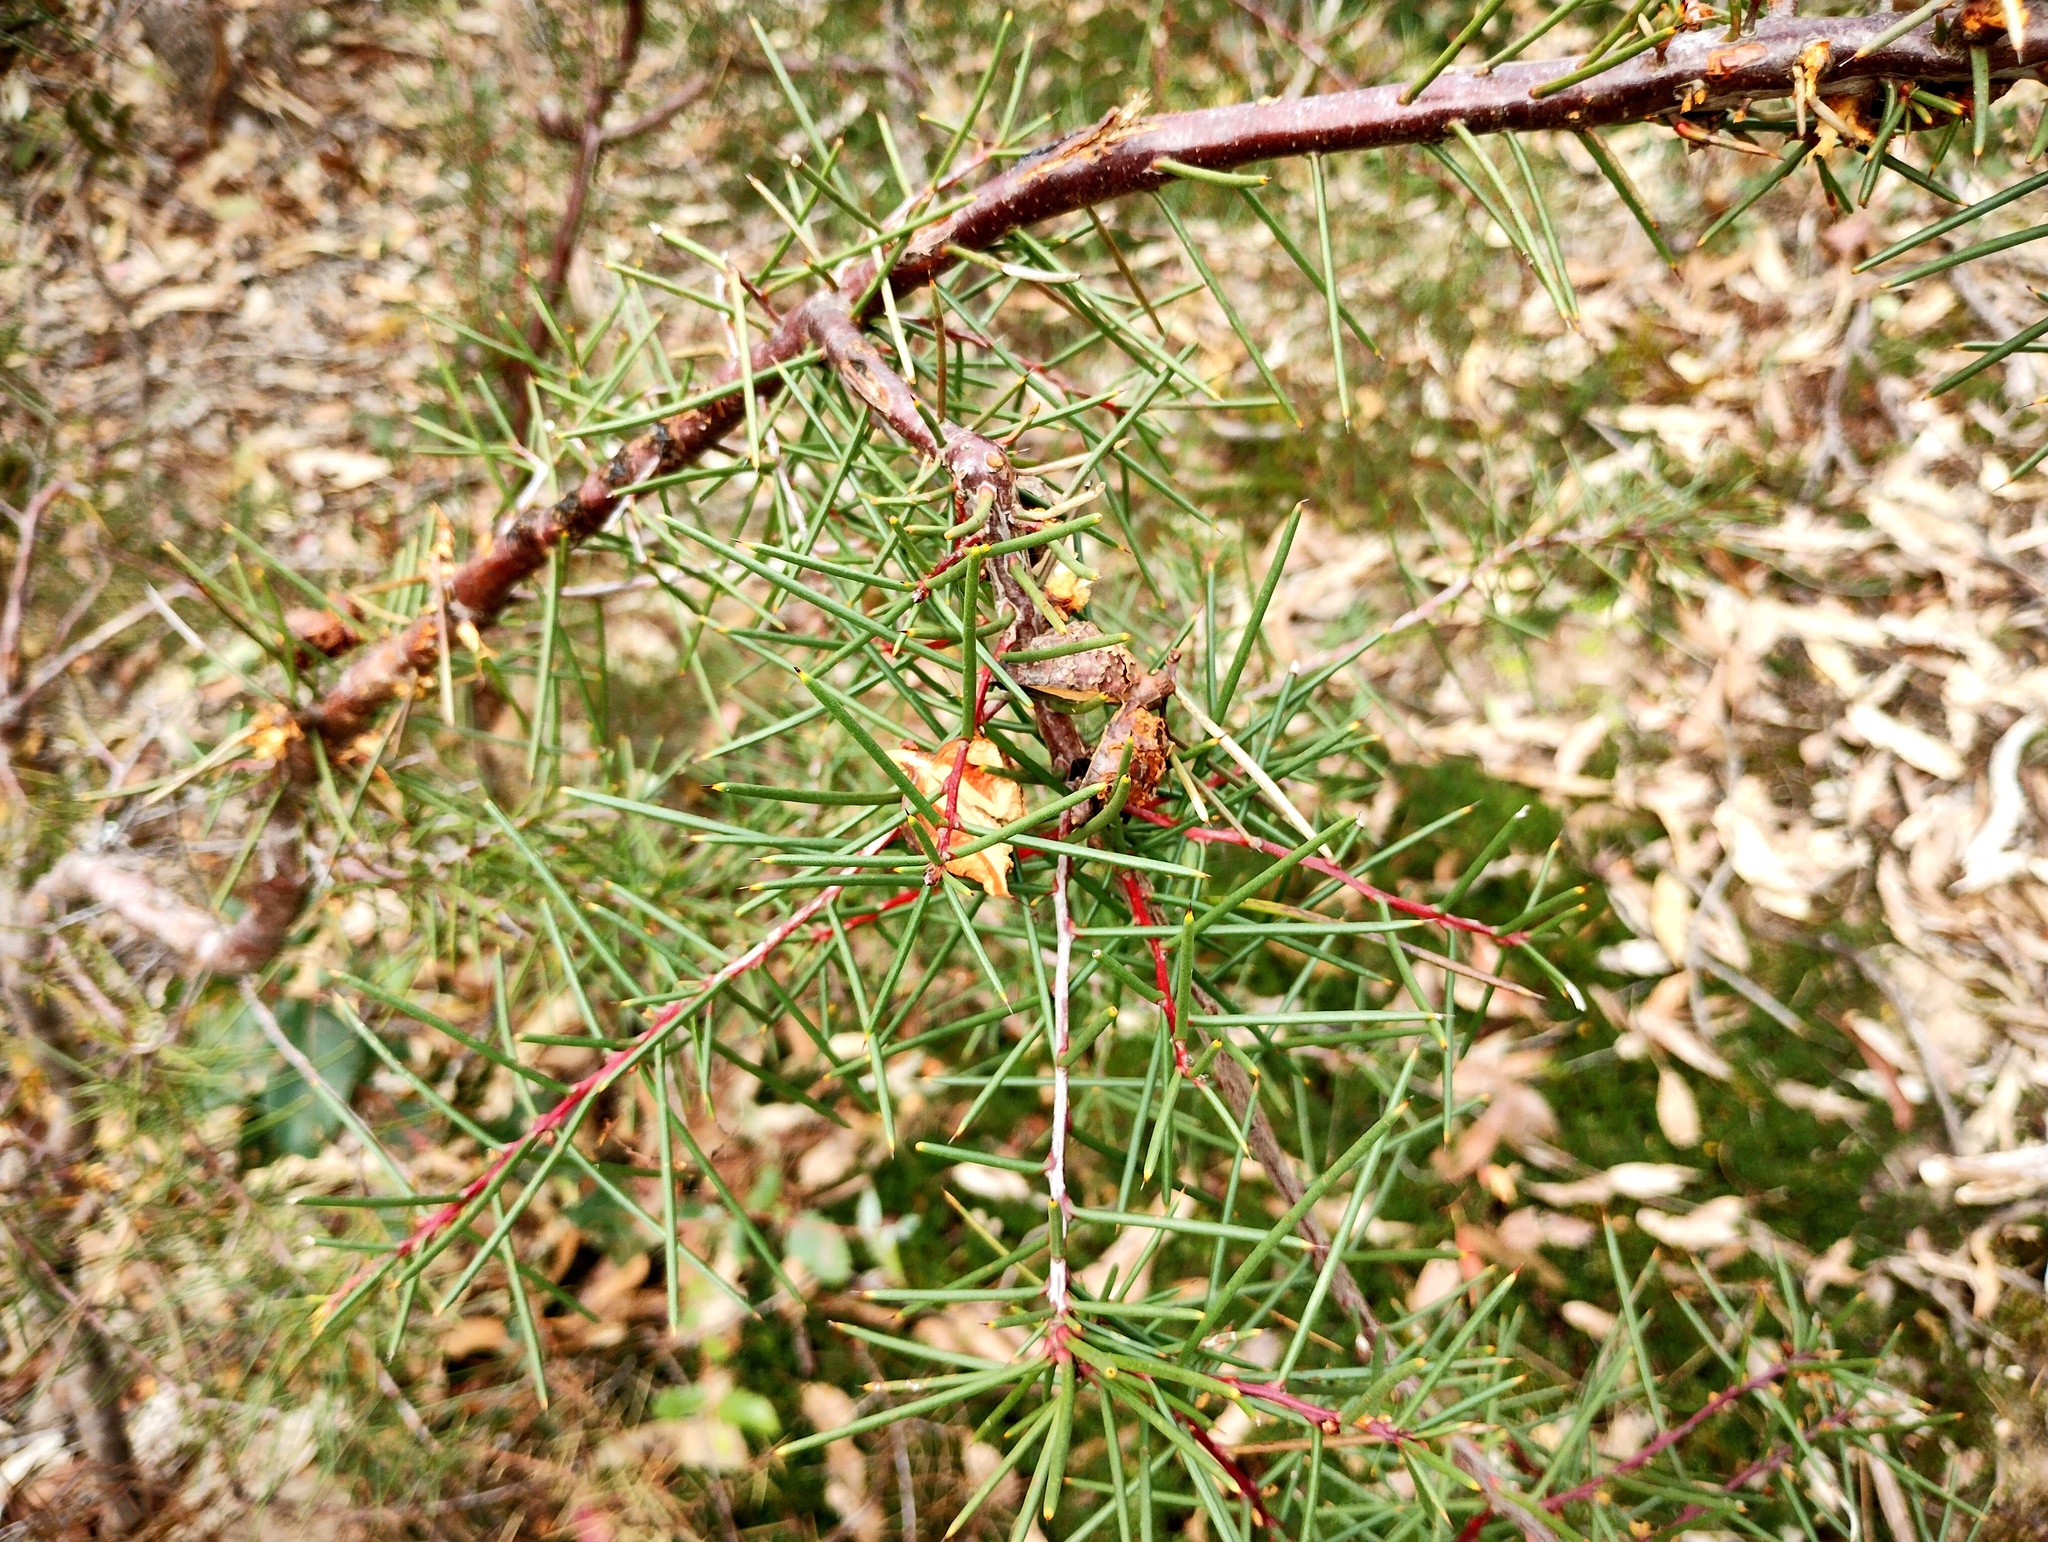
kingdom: Plantae
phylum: Tracheophyta
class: Magnoliopsida
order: Proteales
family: Proteaceae
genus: Hakea
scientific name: Hakea decurrens
